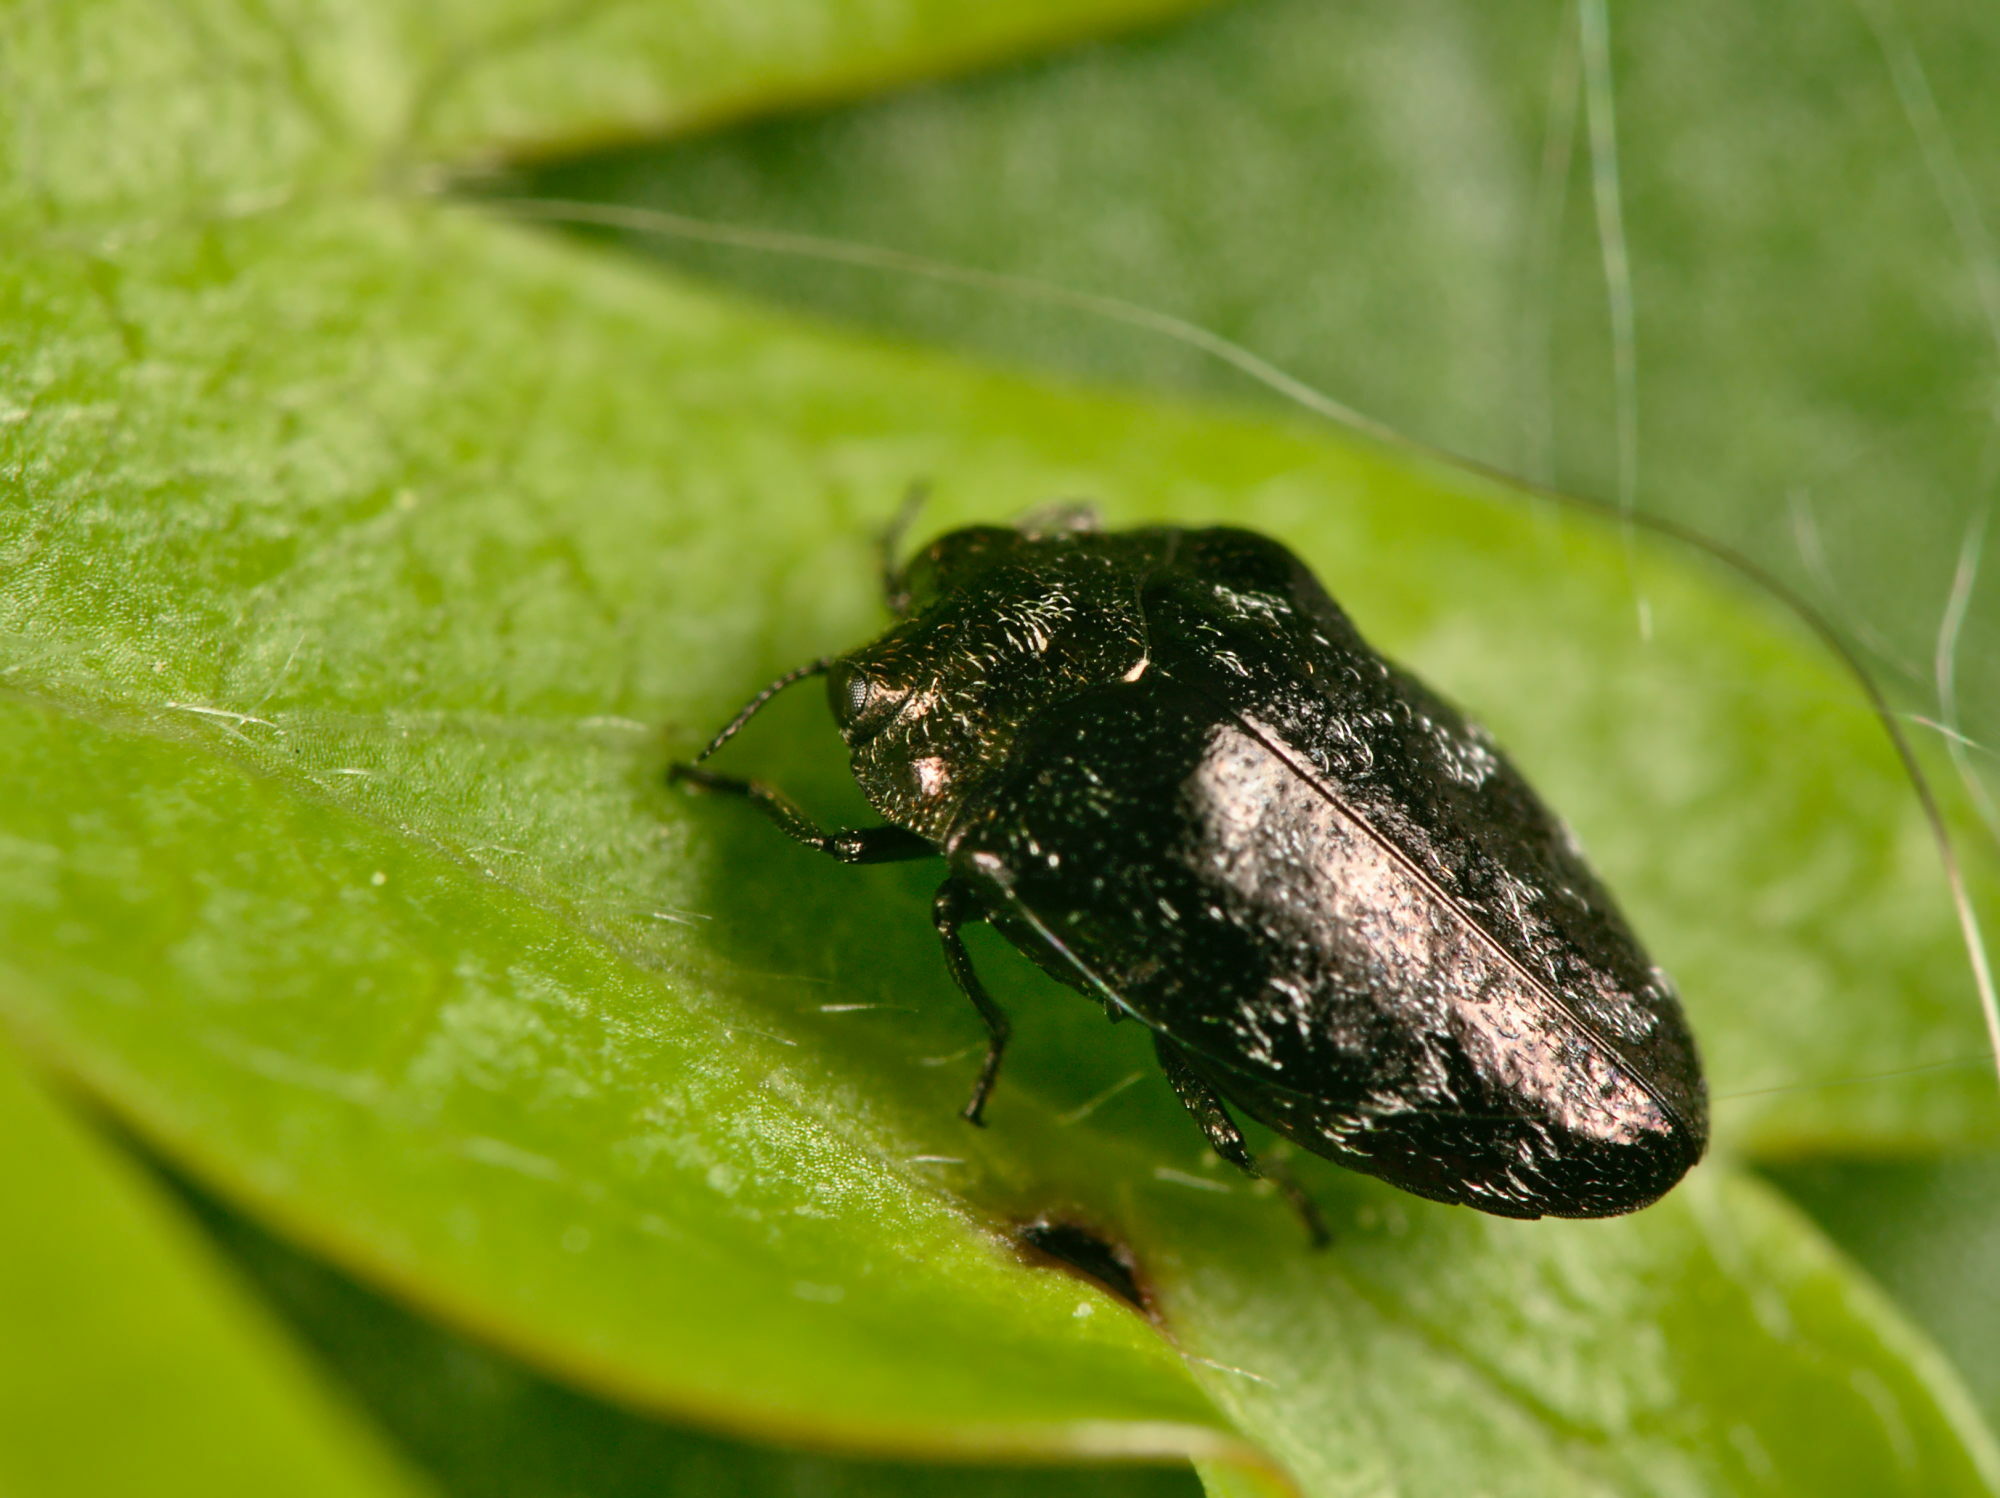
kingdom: Animalia
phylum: Arthropoda
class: Insecta
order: Coleoptera
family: Buprestidae
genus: Trachys
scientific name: Trachys minutus
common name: Metallic wood-boring beetle
